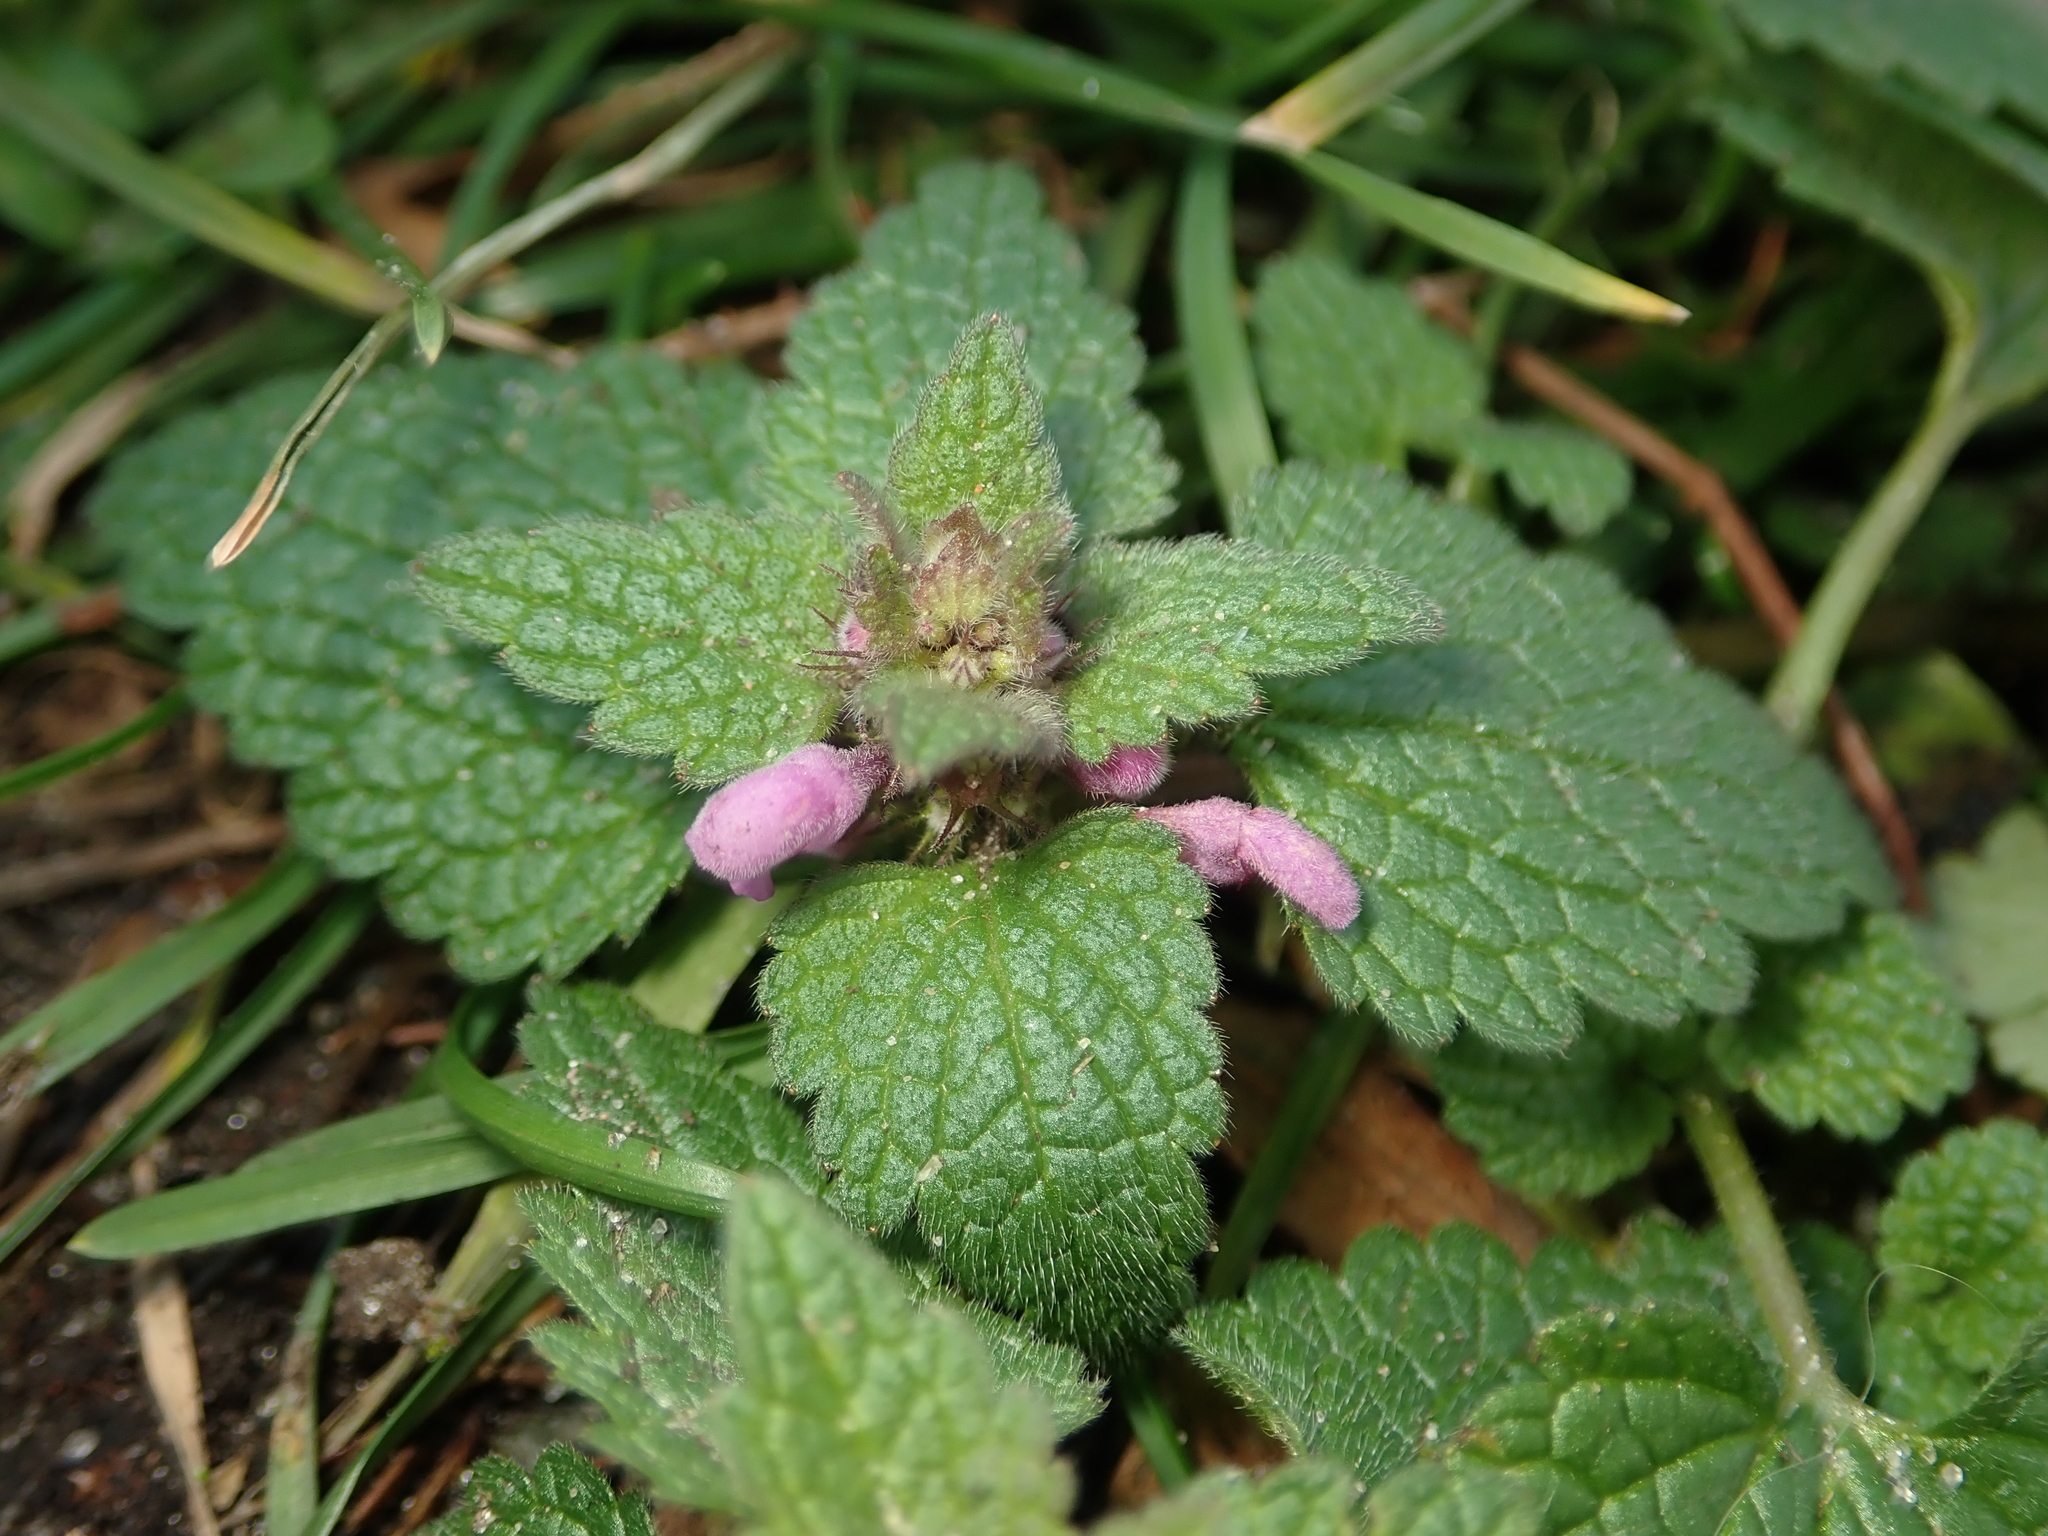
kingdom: Plantae
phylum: Tracheophyta
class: Magnoliopsida
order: Lamiales
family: Lamiaceae
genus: Lamium
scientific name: Lamium purpureum
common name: Red dead-nettle
